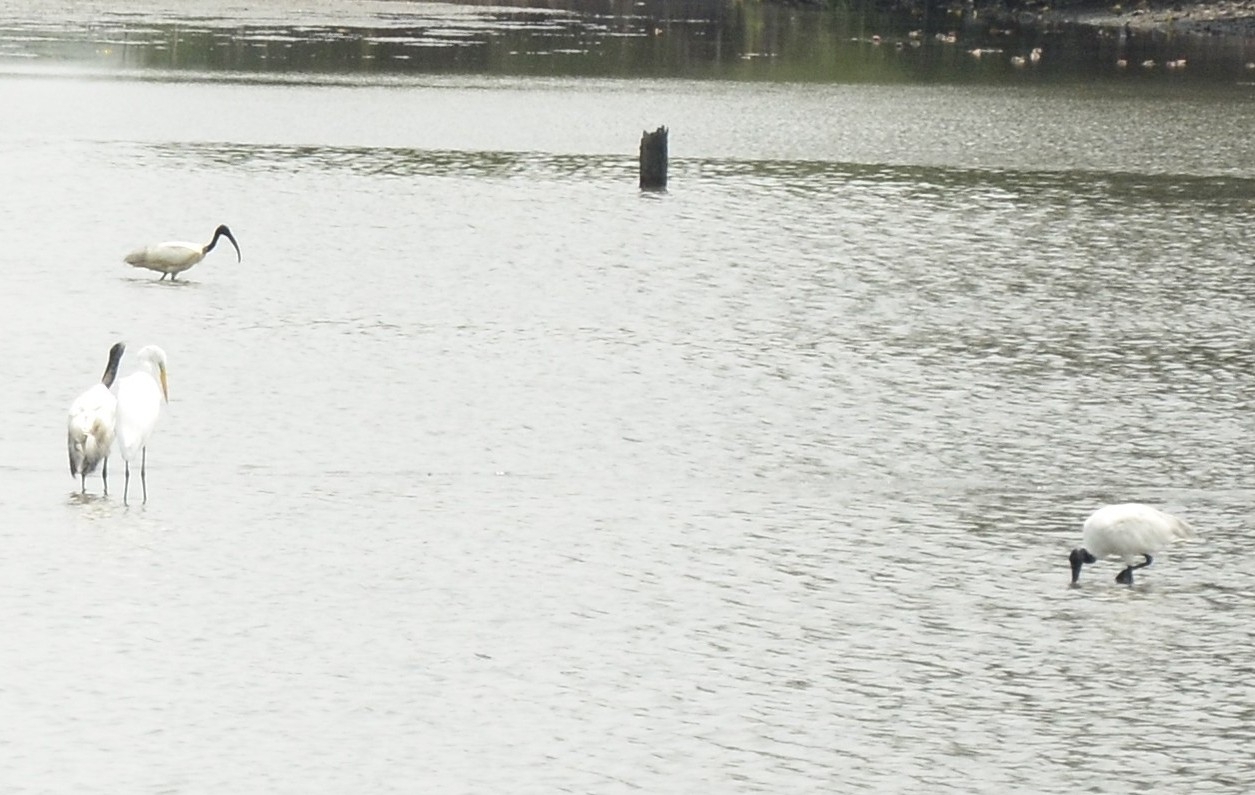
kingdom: Animalia
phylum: Chordata
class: Aves
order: Pelecaniformes
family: Threskiornithidae
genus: Threskiornis
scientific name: Threskiornis melanocephalus
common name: Black-headed ibis
